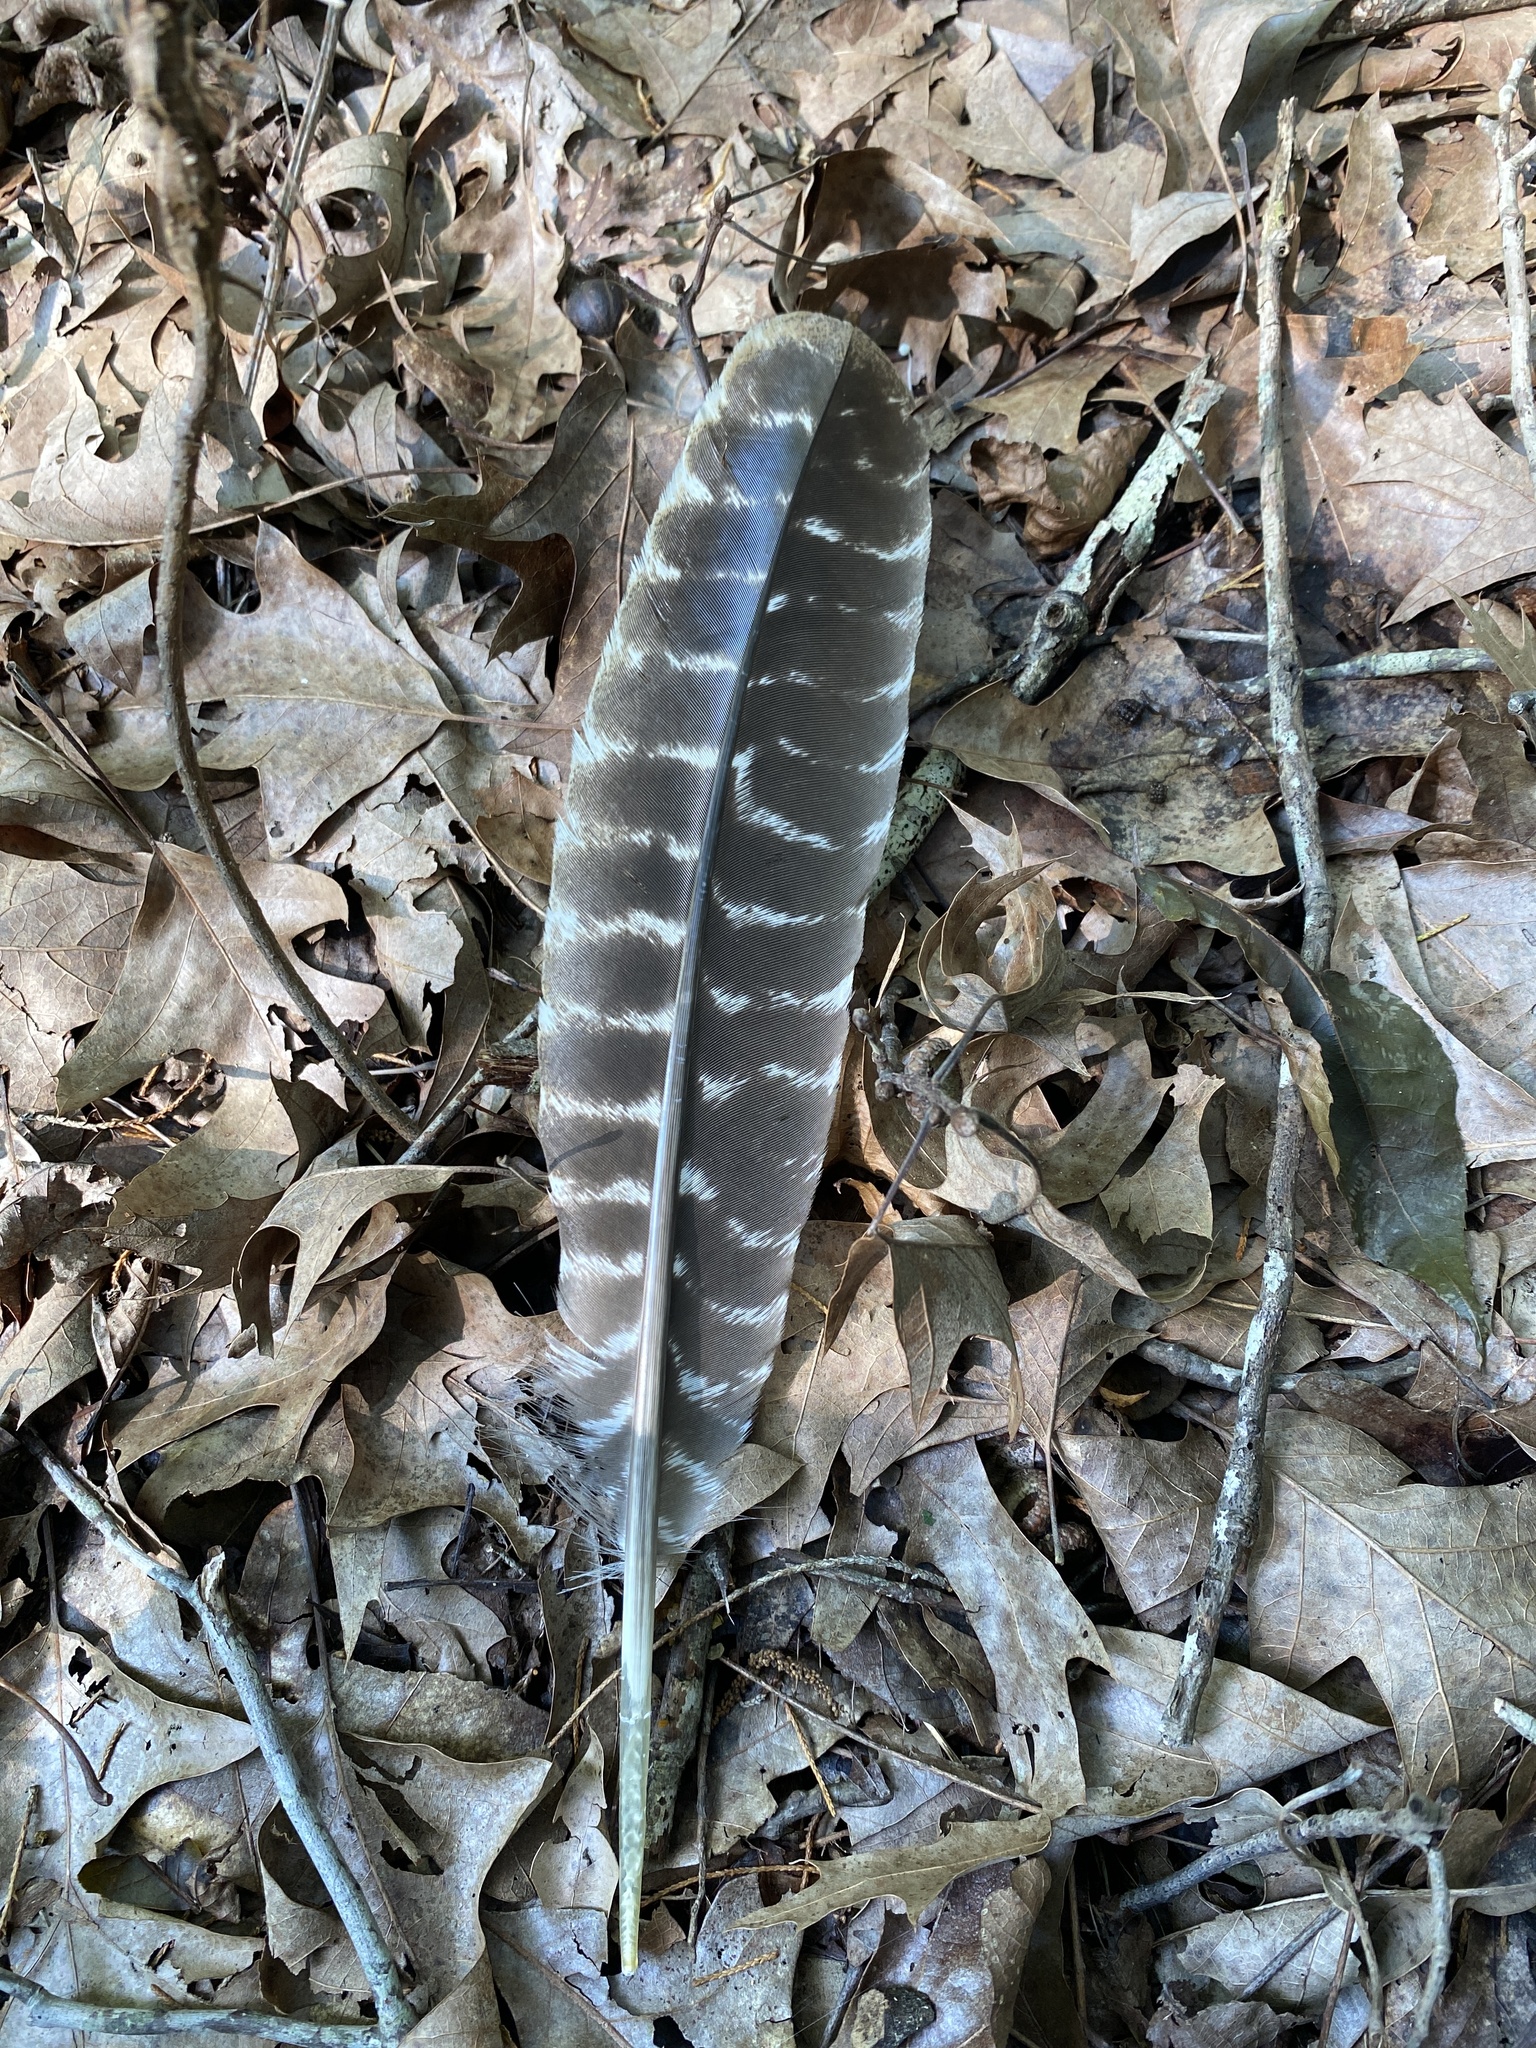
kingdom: Animalia
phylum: Chordata
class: Aves
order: Galliformes
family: Phasianidae
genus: Meleagris
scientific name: Meleagris gallopavo
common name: Wild turkey
